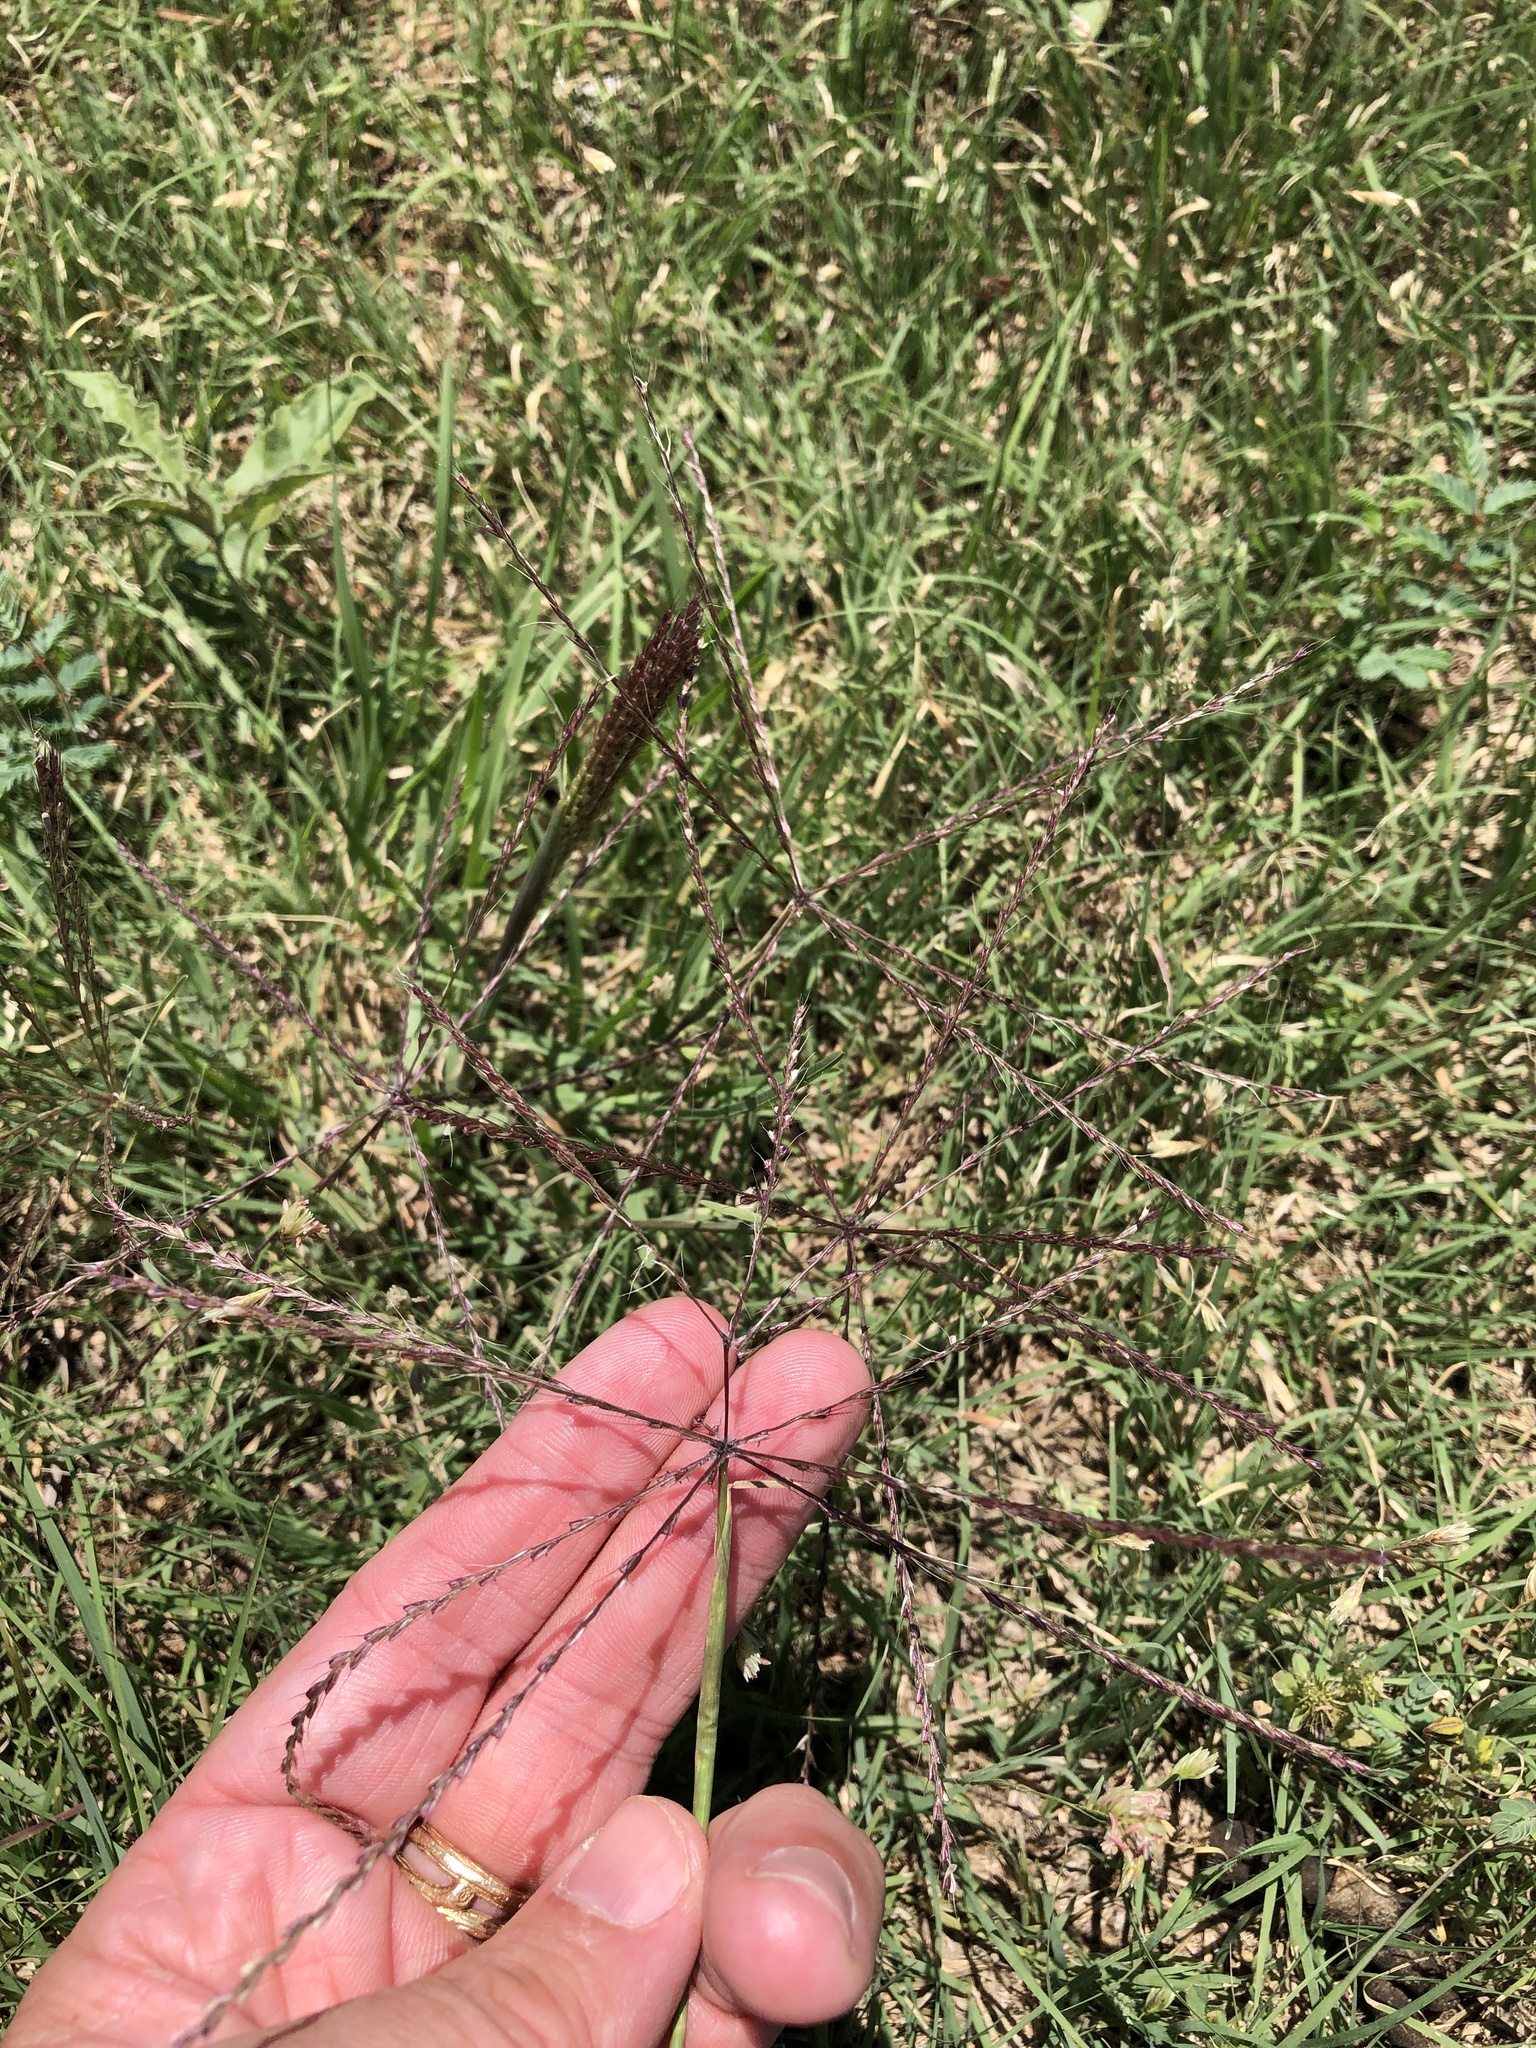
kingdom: Plantae
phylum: Tracheophyta
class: Liliopsida
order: Poales
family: Poaceae
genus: Chloris
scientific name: Chloris verticillata
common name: Tumble windmill grass
